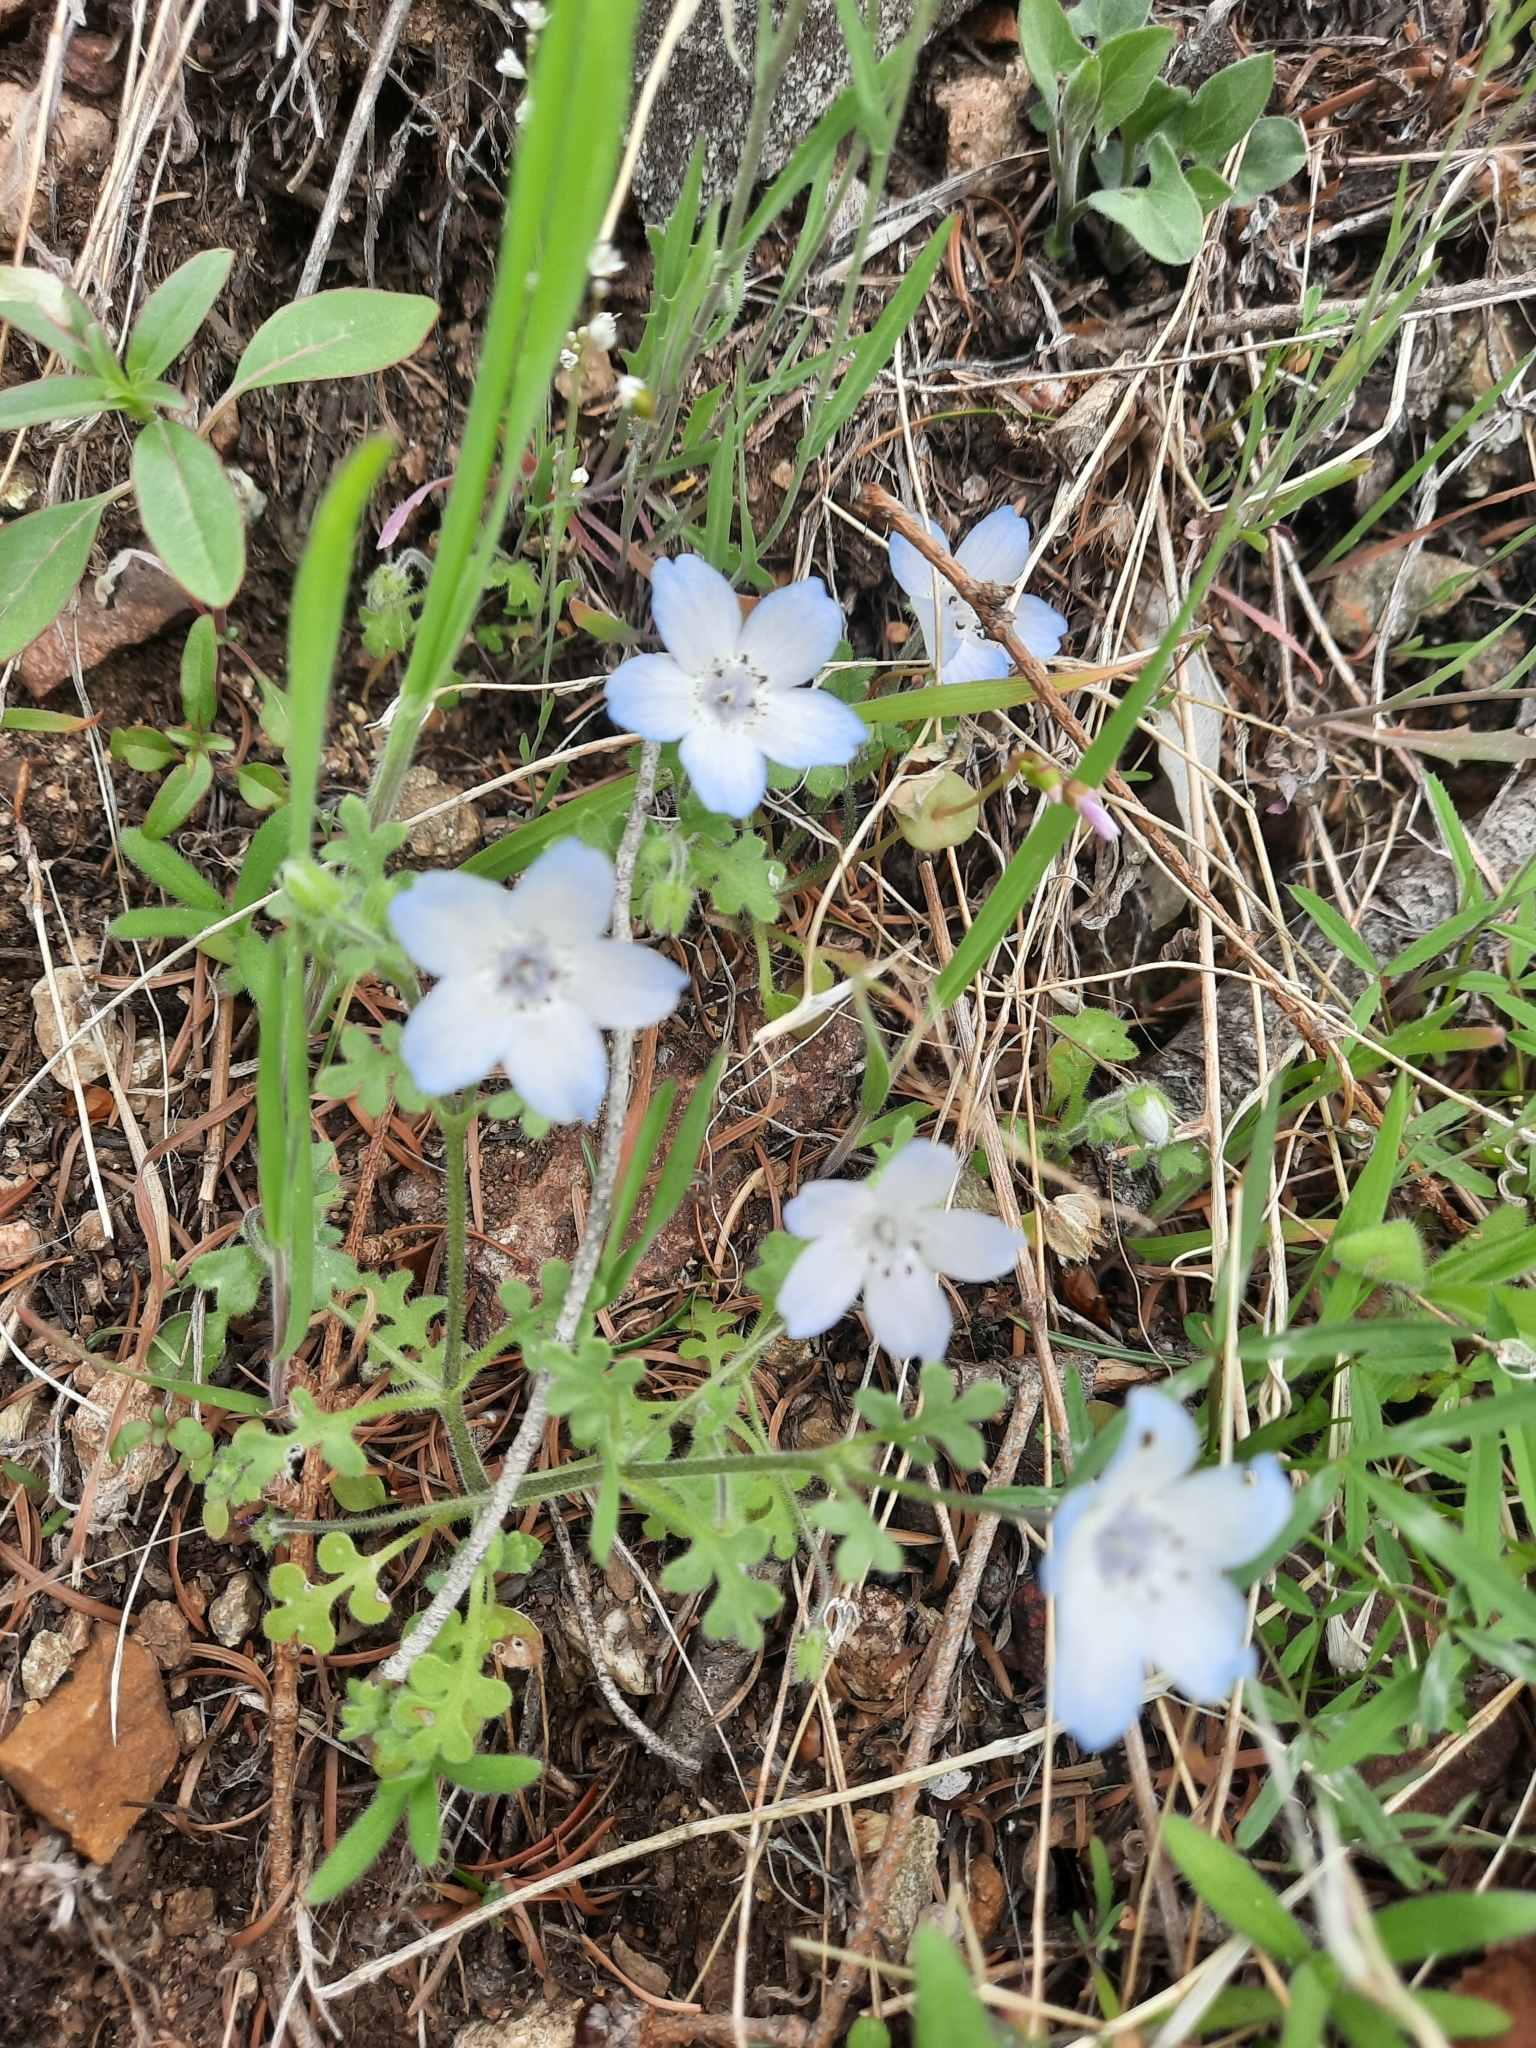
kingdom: Plantae
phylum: Tracheophyta
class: Magnoliopsida
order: Boraginales
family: Hydrophyllaceae
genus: Nemophila
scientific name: Nemophila menziesii
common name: Baby's-blue-eyes
